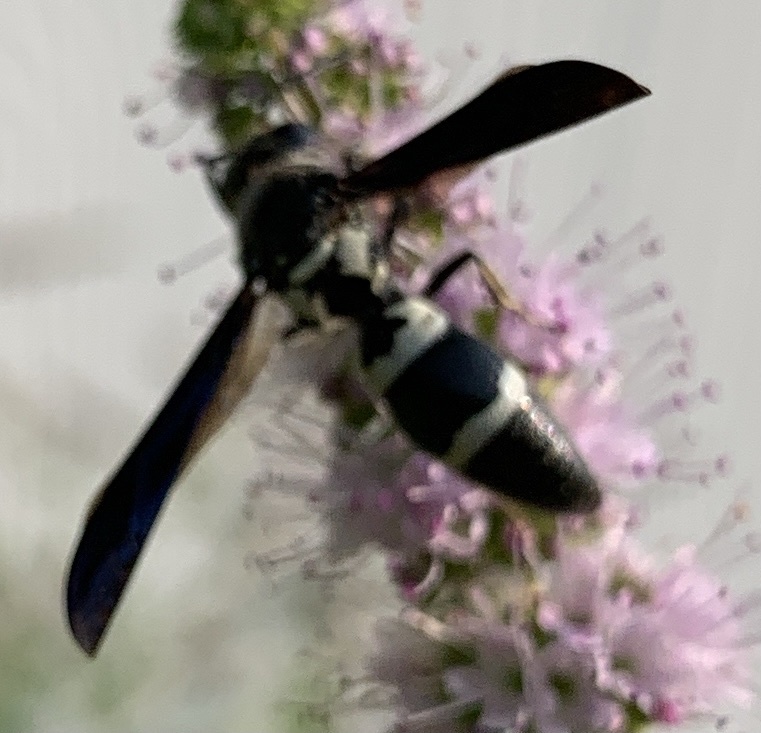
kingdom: Animalia
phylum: Arthropoda
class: Insecta
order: Hymenoptera
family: Eumenidae
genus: Pseudodynerus
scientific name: Pseudodynerus quadrisectus
